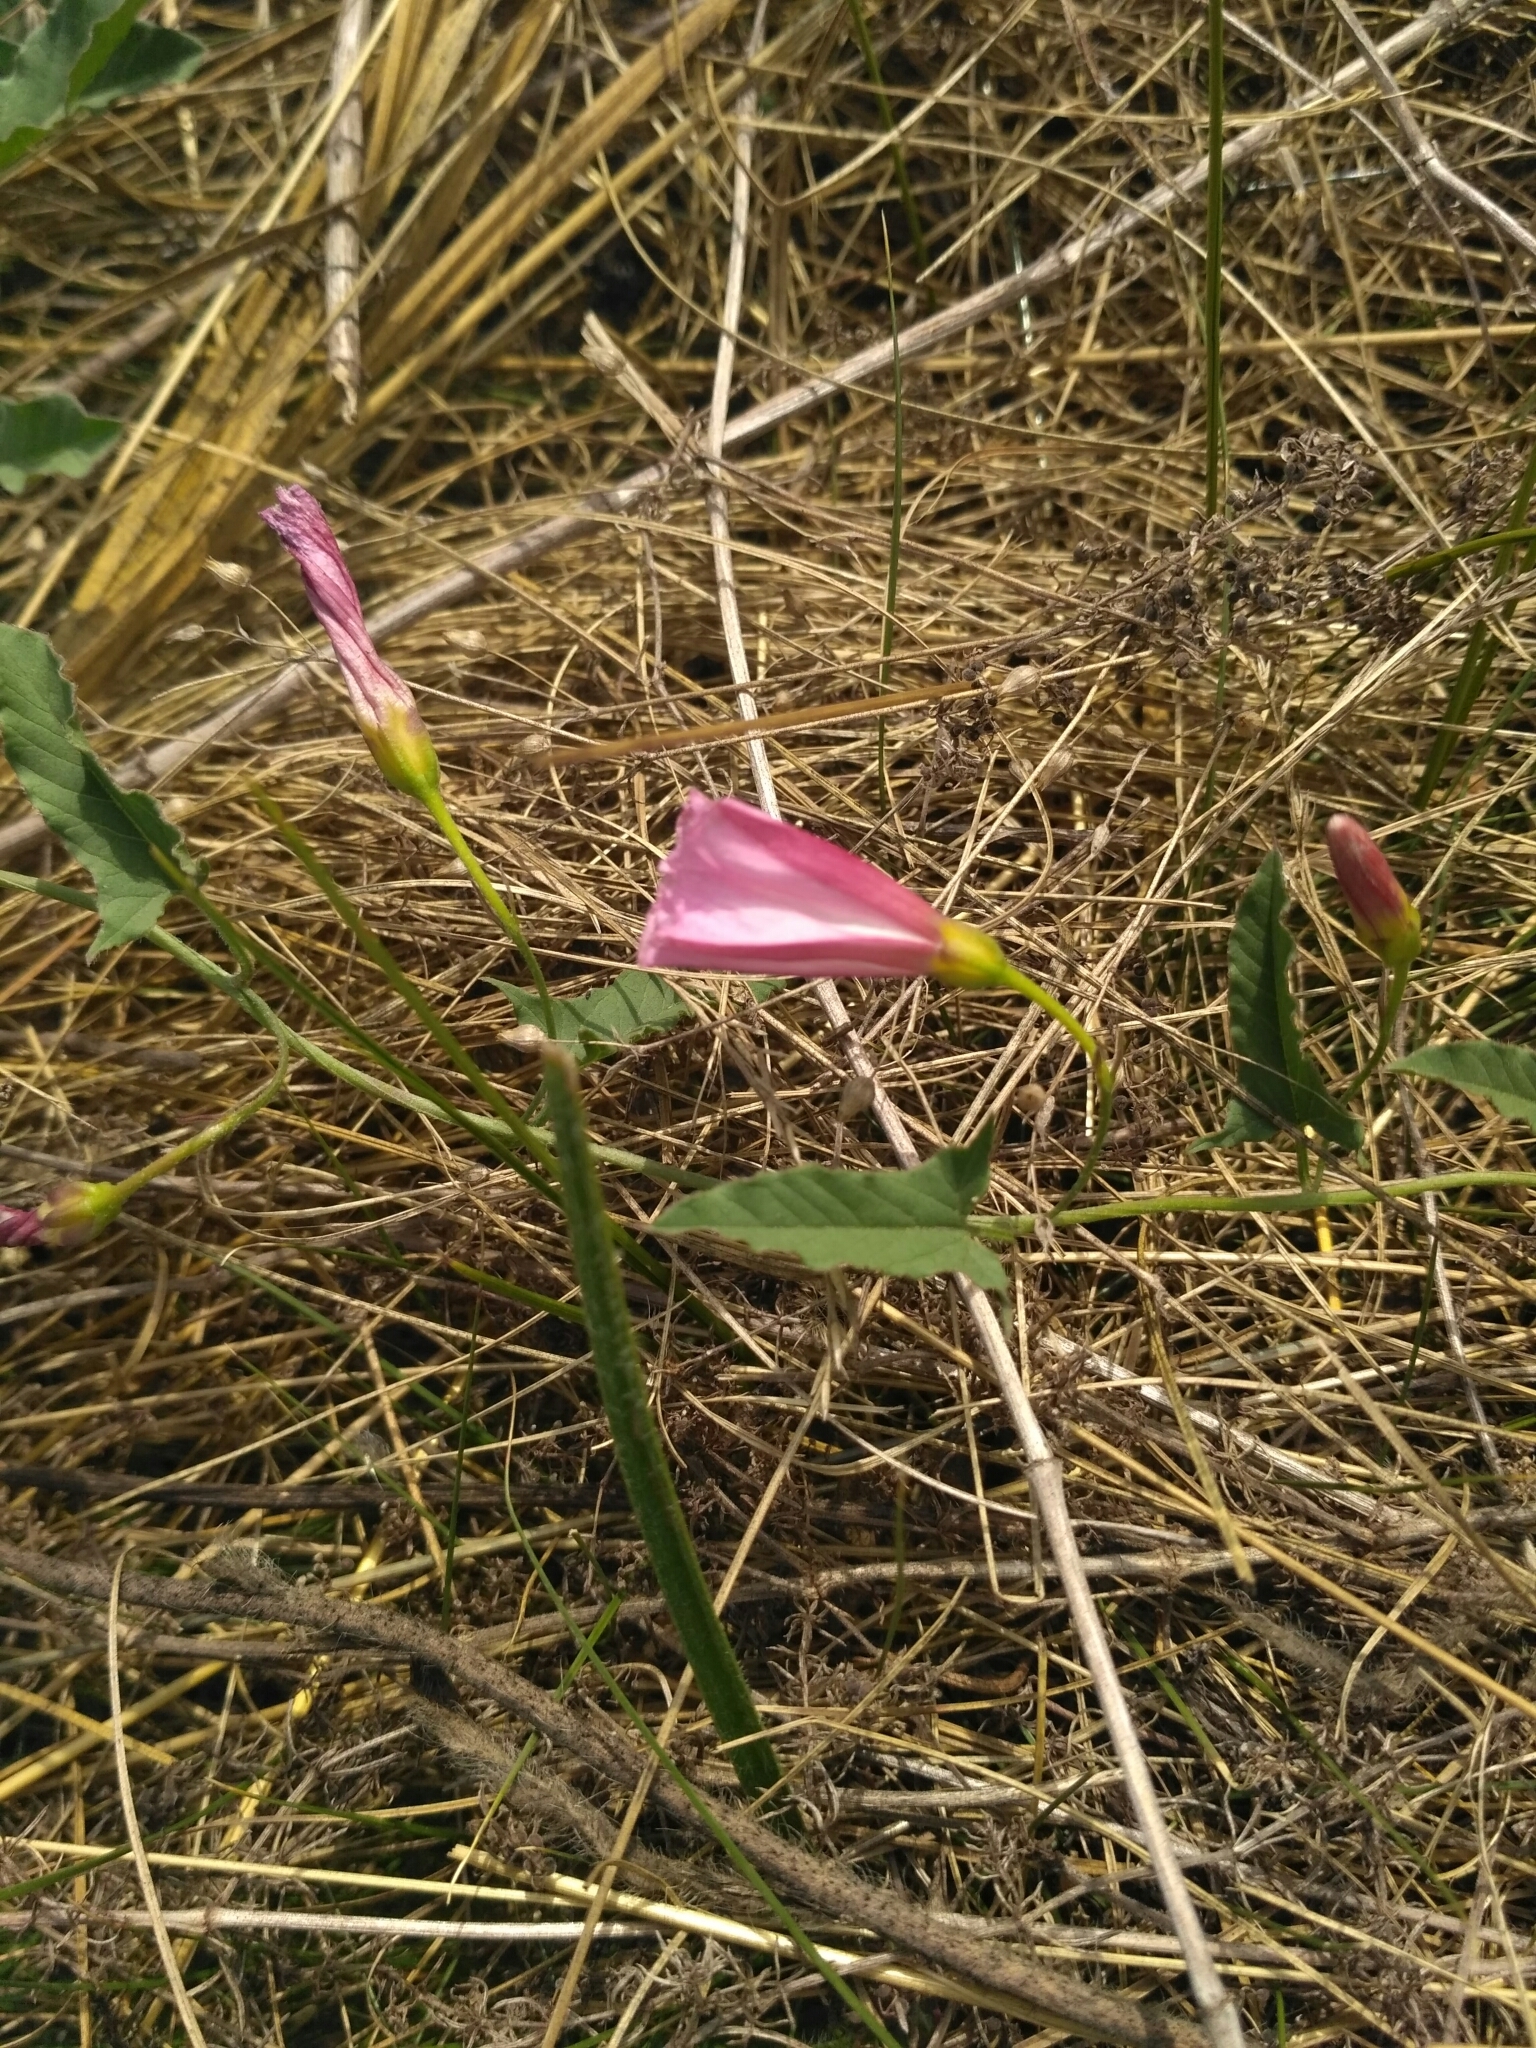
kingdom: Plantae
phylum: Tracheophyta
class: Magnoliopsida
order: Solanales
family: Convolvulaceae
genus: Convolvulus
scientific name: Convolvulus arvensis
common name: Field bindweed
